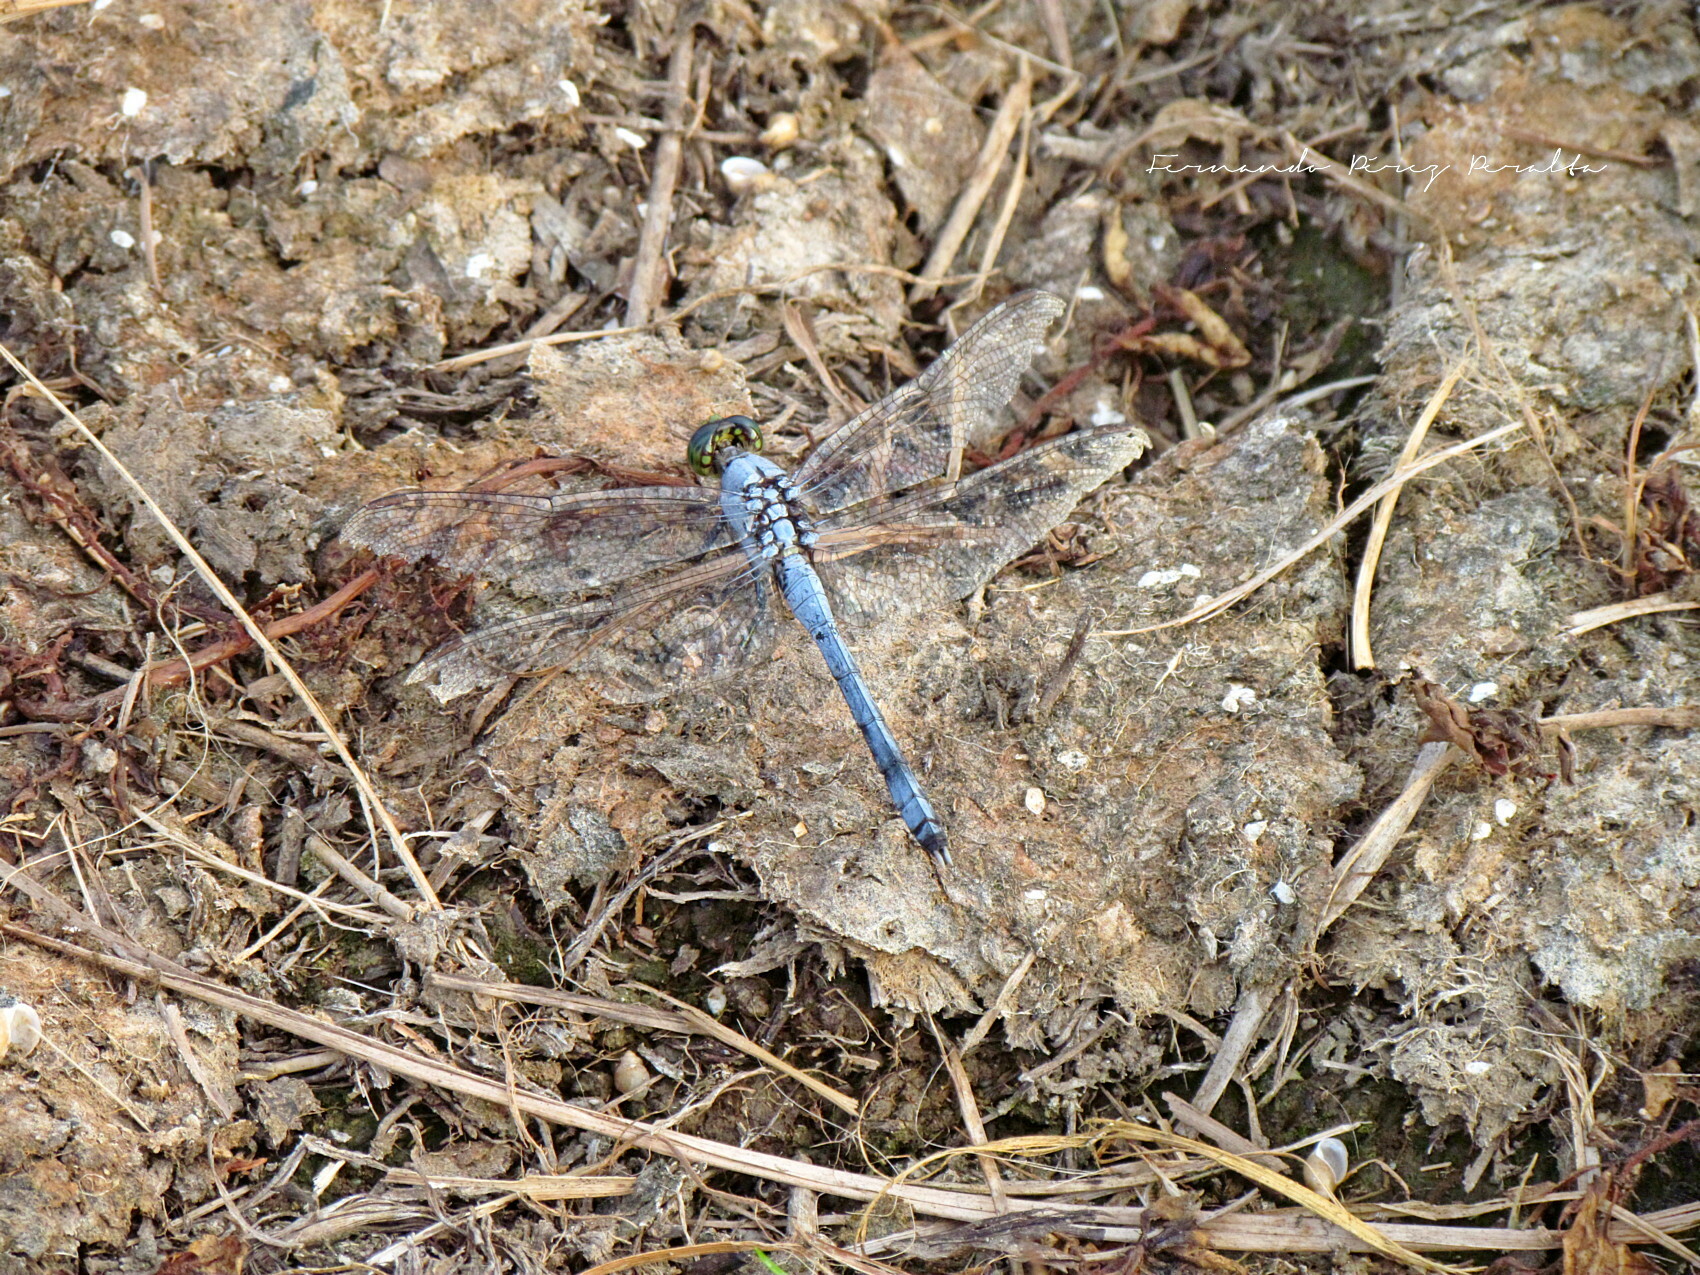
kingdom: Animalia
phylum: Arthropoda
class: Insecta
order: Odonata
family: Libellulidae
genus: Erythemis
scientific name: Erythemis simplicicollis
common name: Eastern pondhawk
